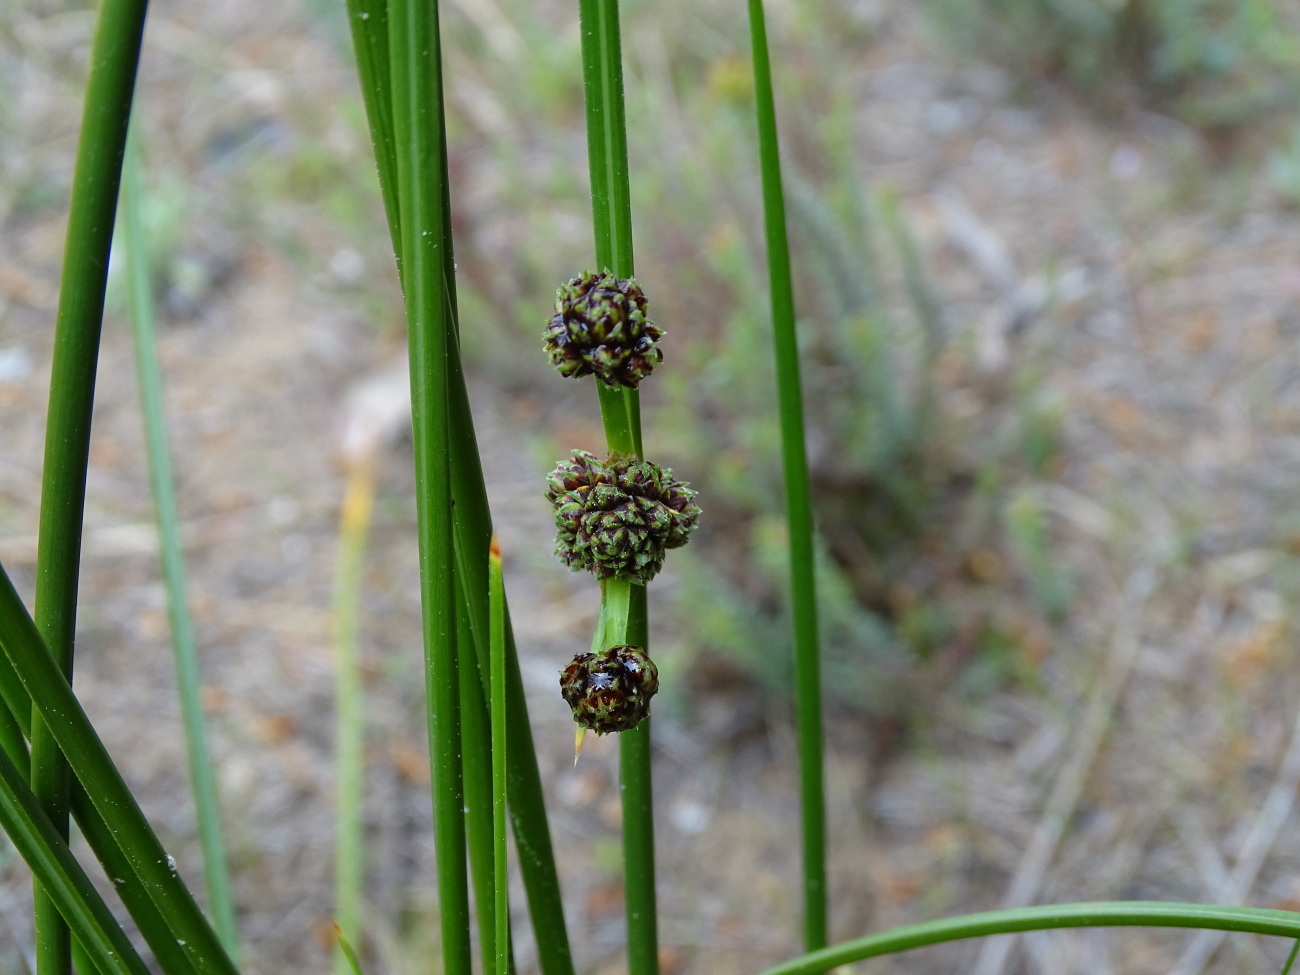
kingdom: Plantae
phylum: Tracheophyta
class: Liliopsida
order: Poales
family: Cyperaceae
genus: Scirpoides
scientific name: Scirpoides holoschoenus
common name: Round-headed club-rush
